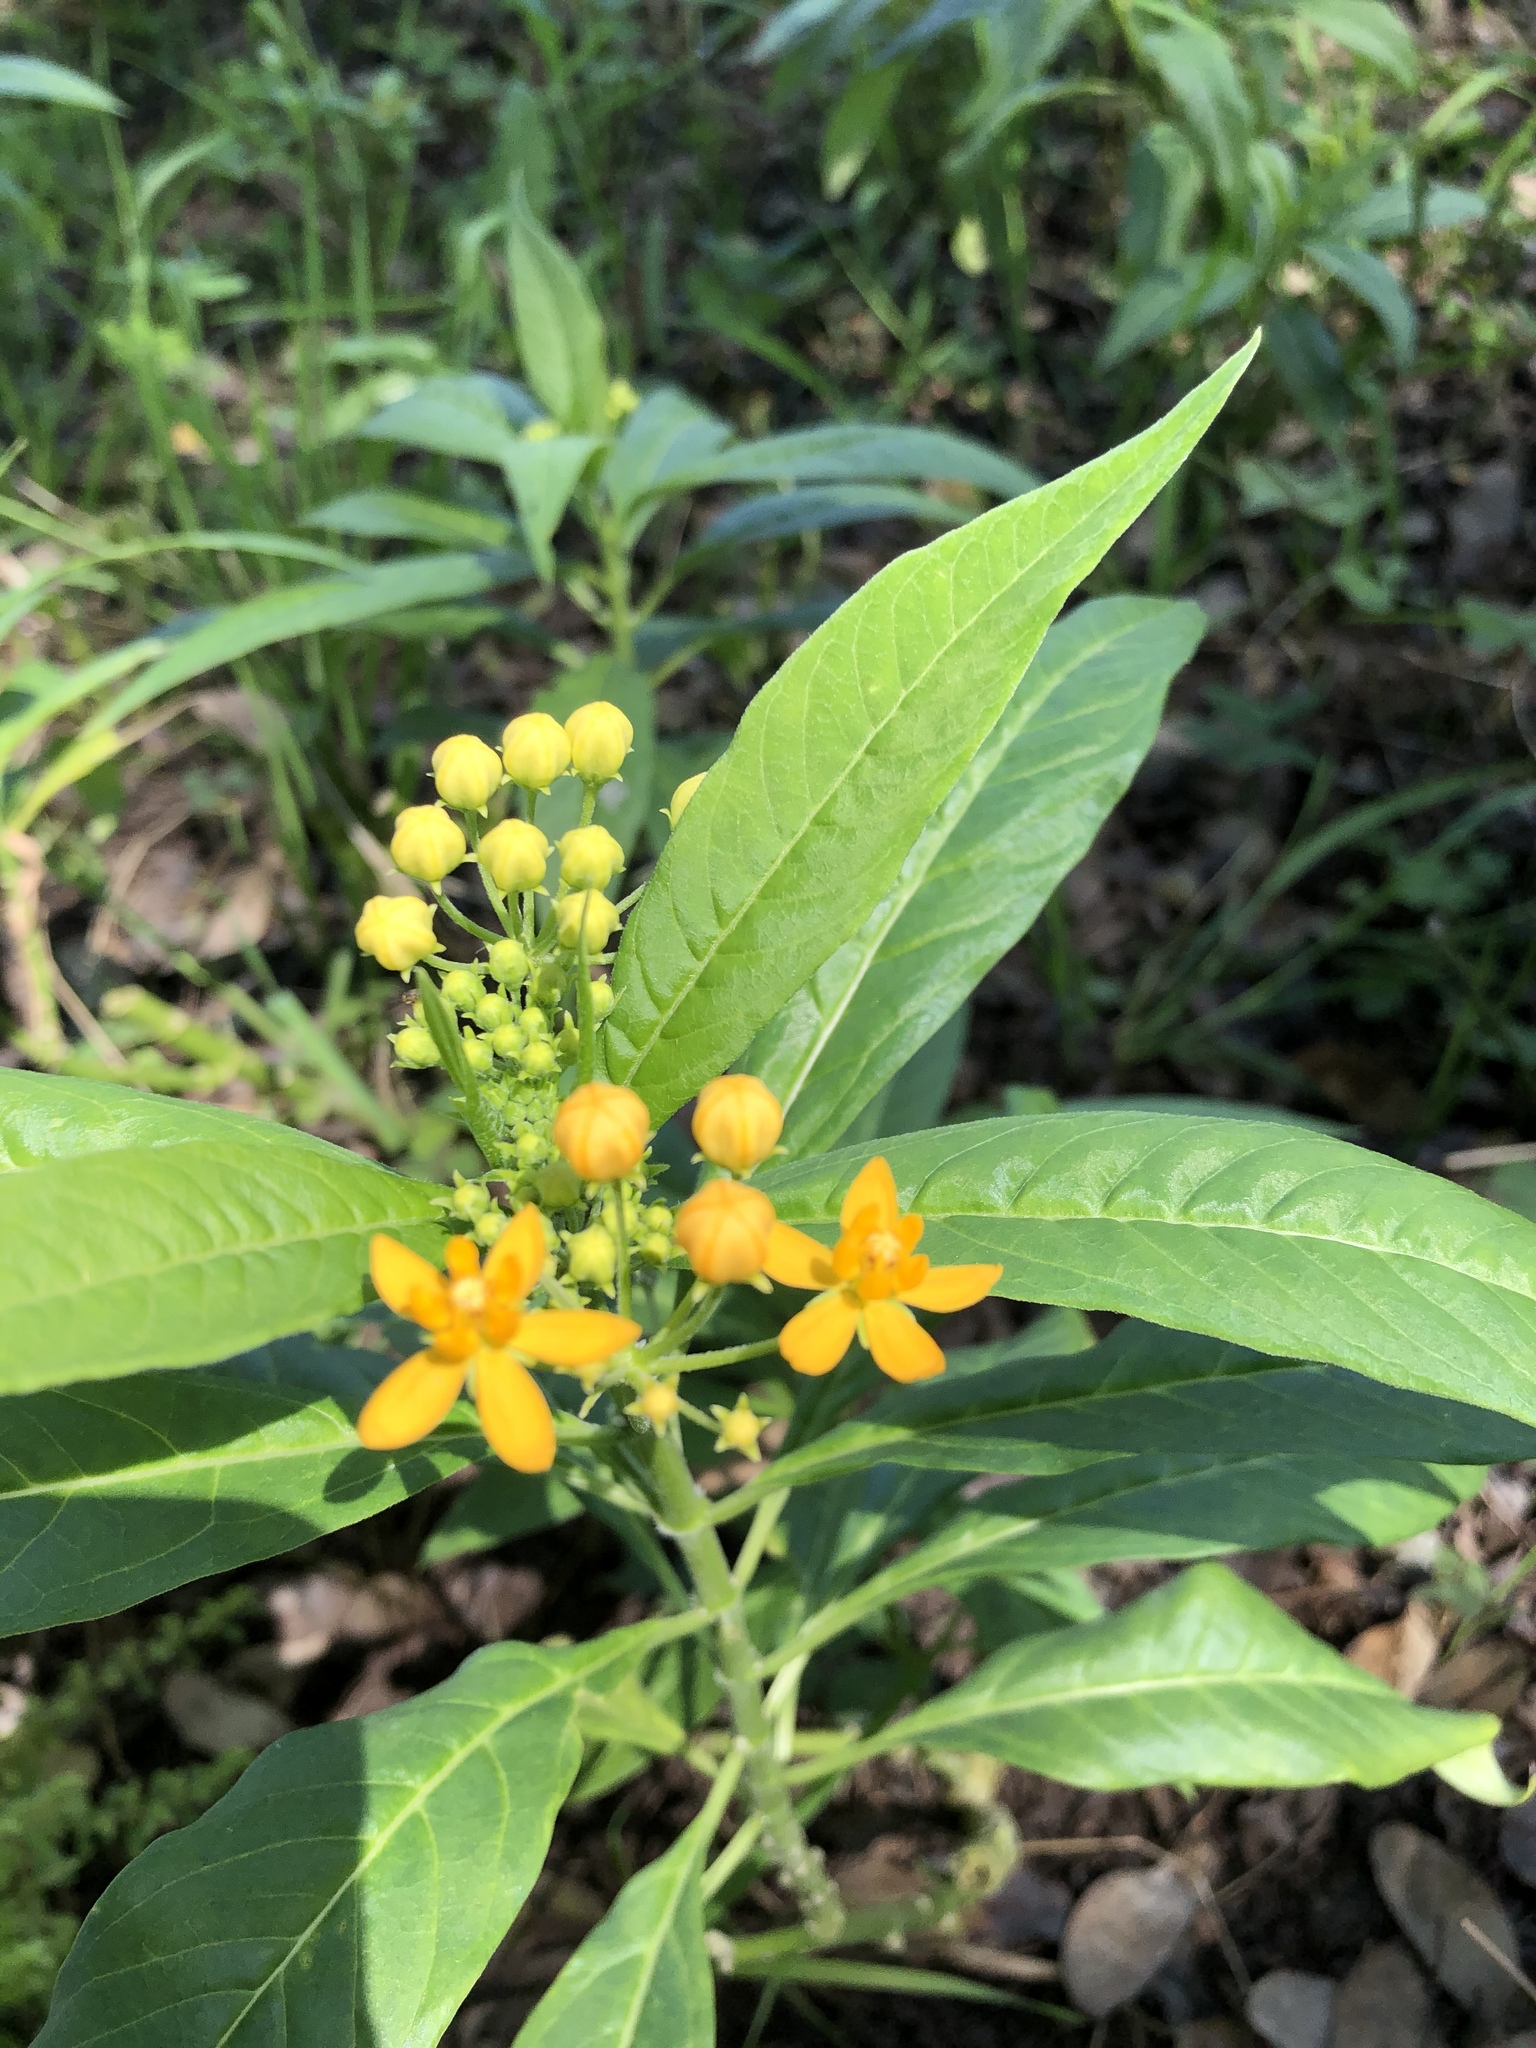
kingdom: Plantae
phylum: Tracheophyta
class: Magnoliopsida
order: Gentianales
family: Apocynaceae
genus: Asclepias
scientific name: Asclepias curassavica
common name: Bloodflower
